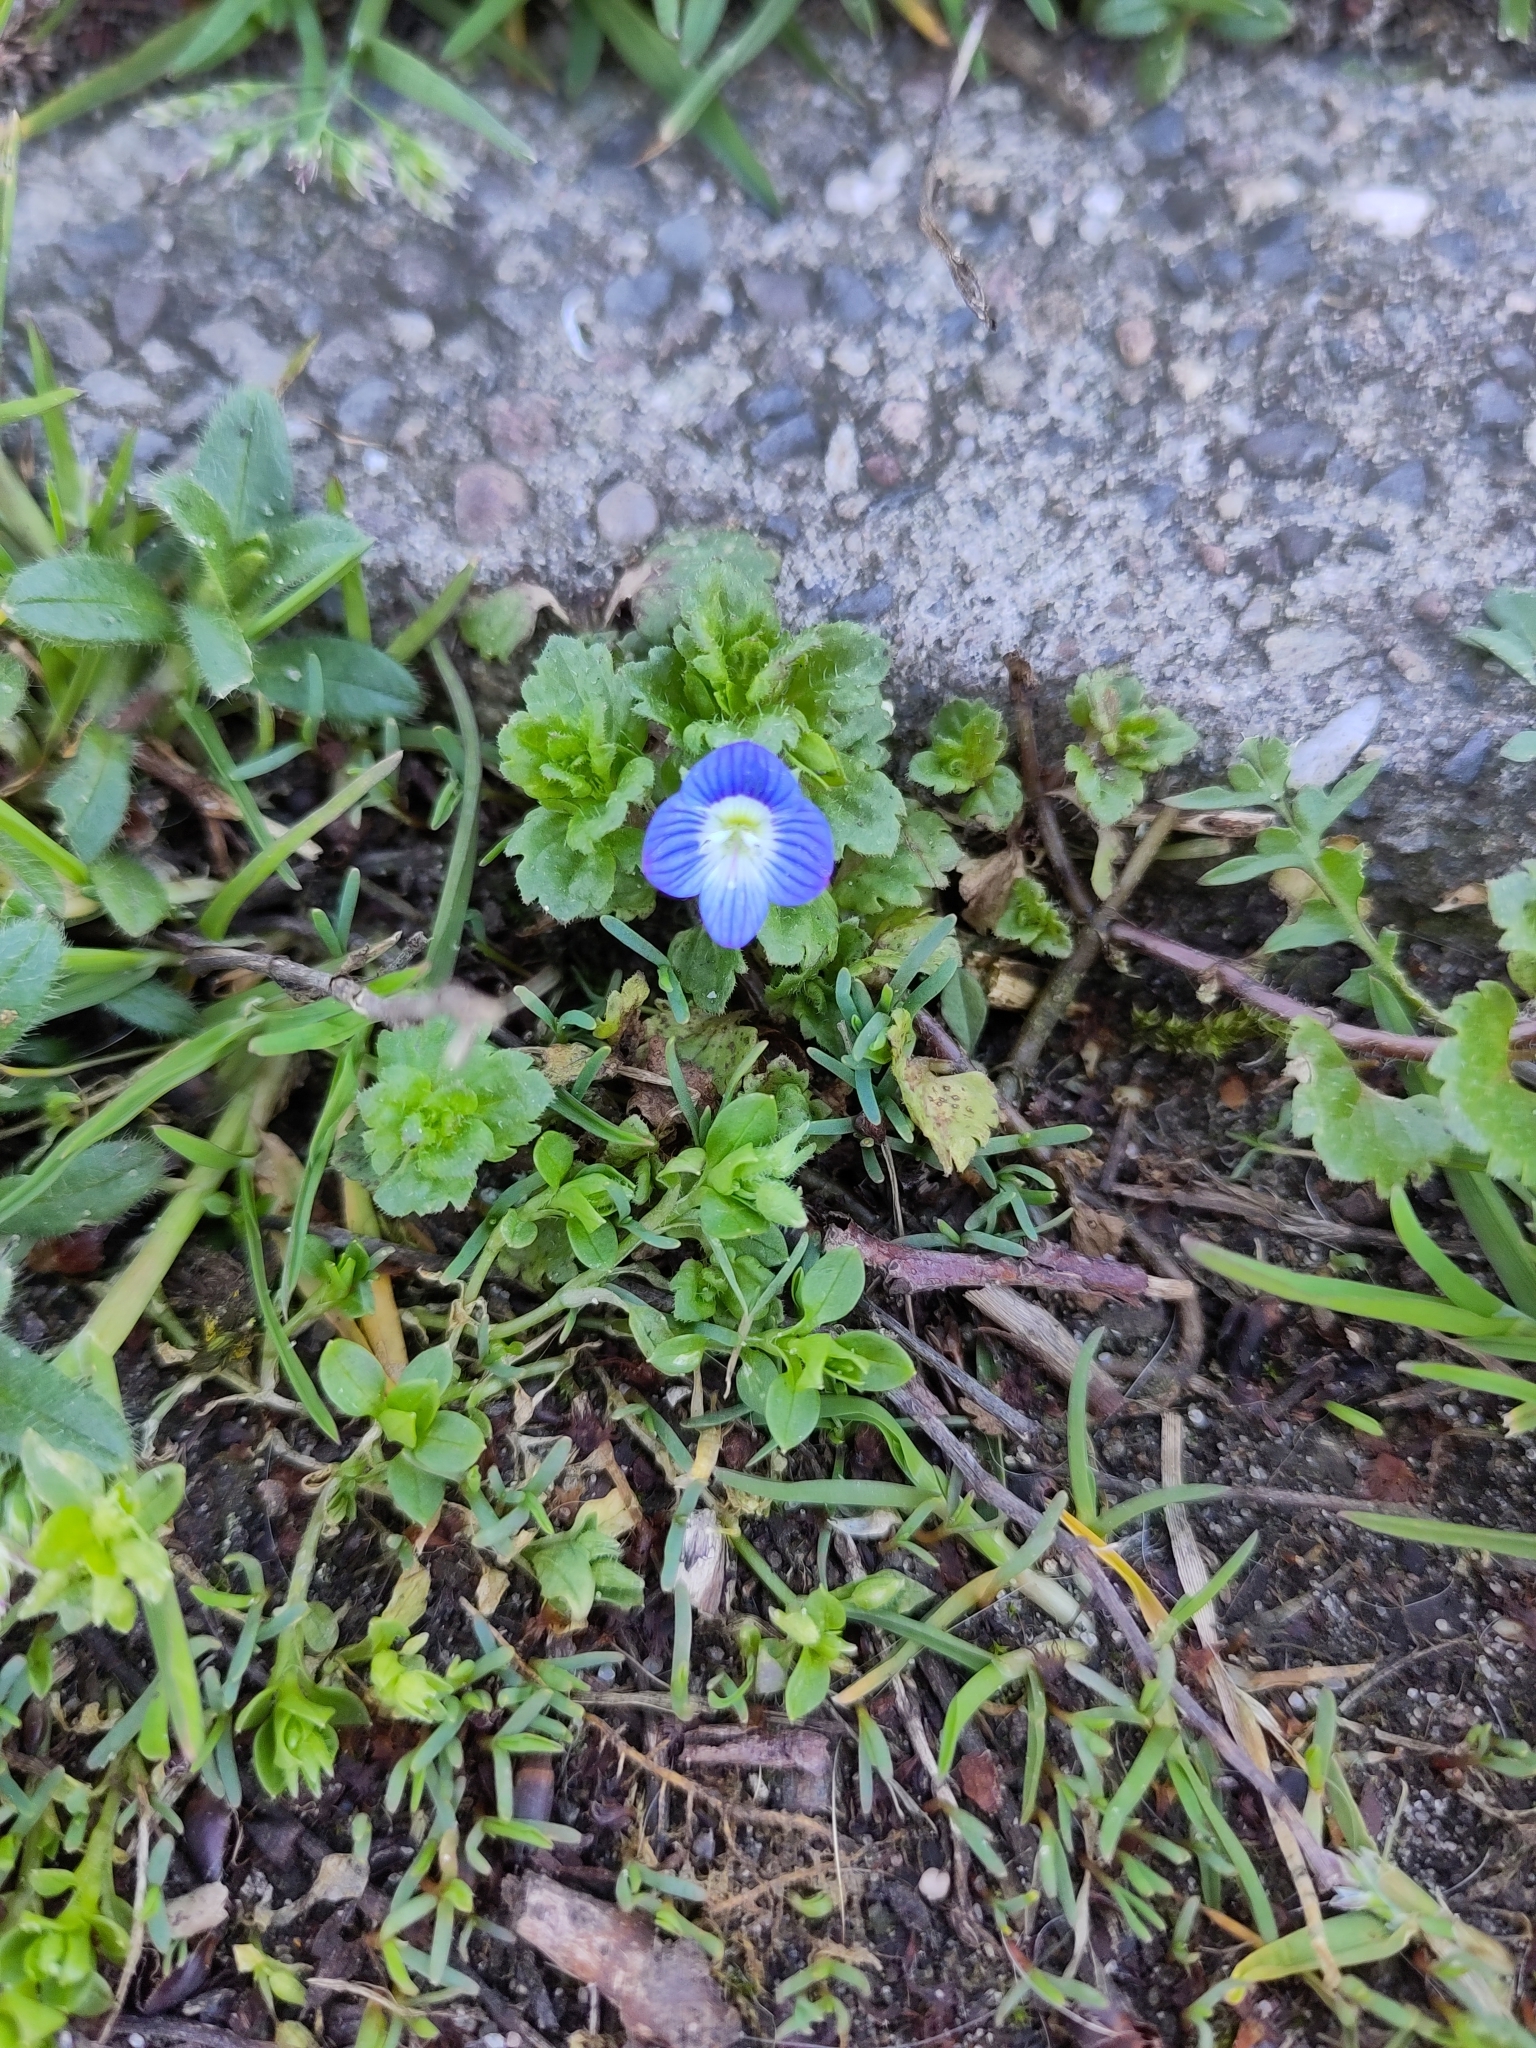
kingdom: Plantae
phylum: Tracheophyta
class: Magnoliopsida
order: Lamiales
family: Plantaginaceae
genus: Veronica
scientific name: Veronica persica
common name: Common field-speedwell
